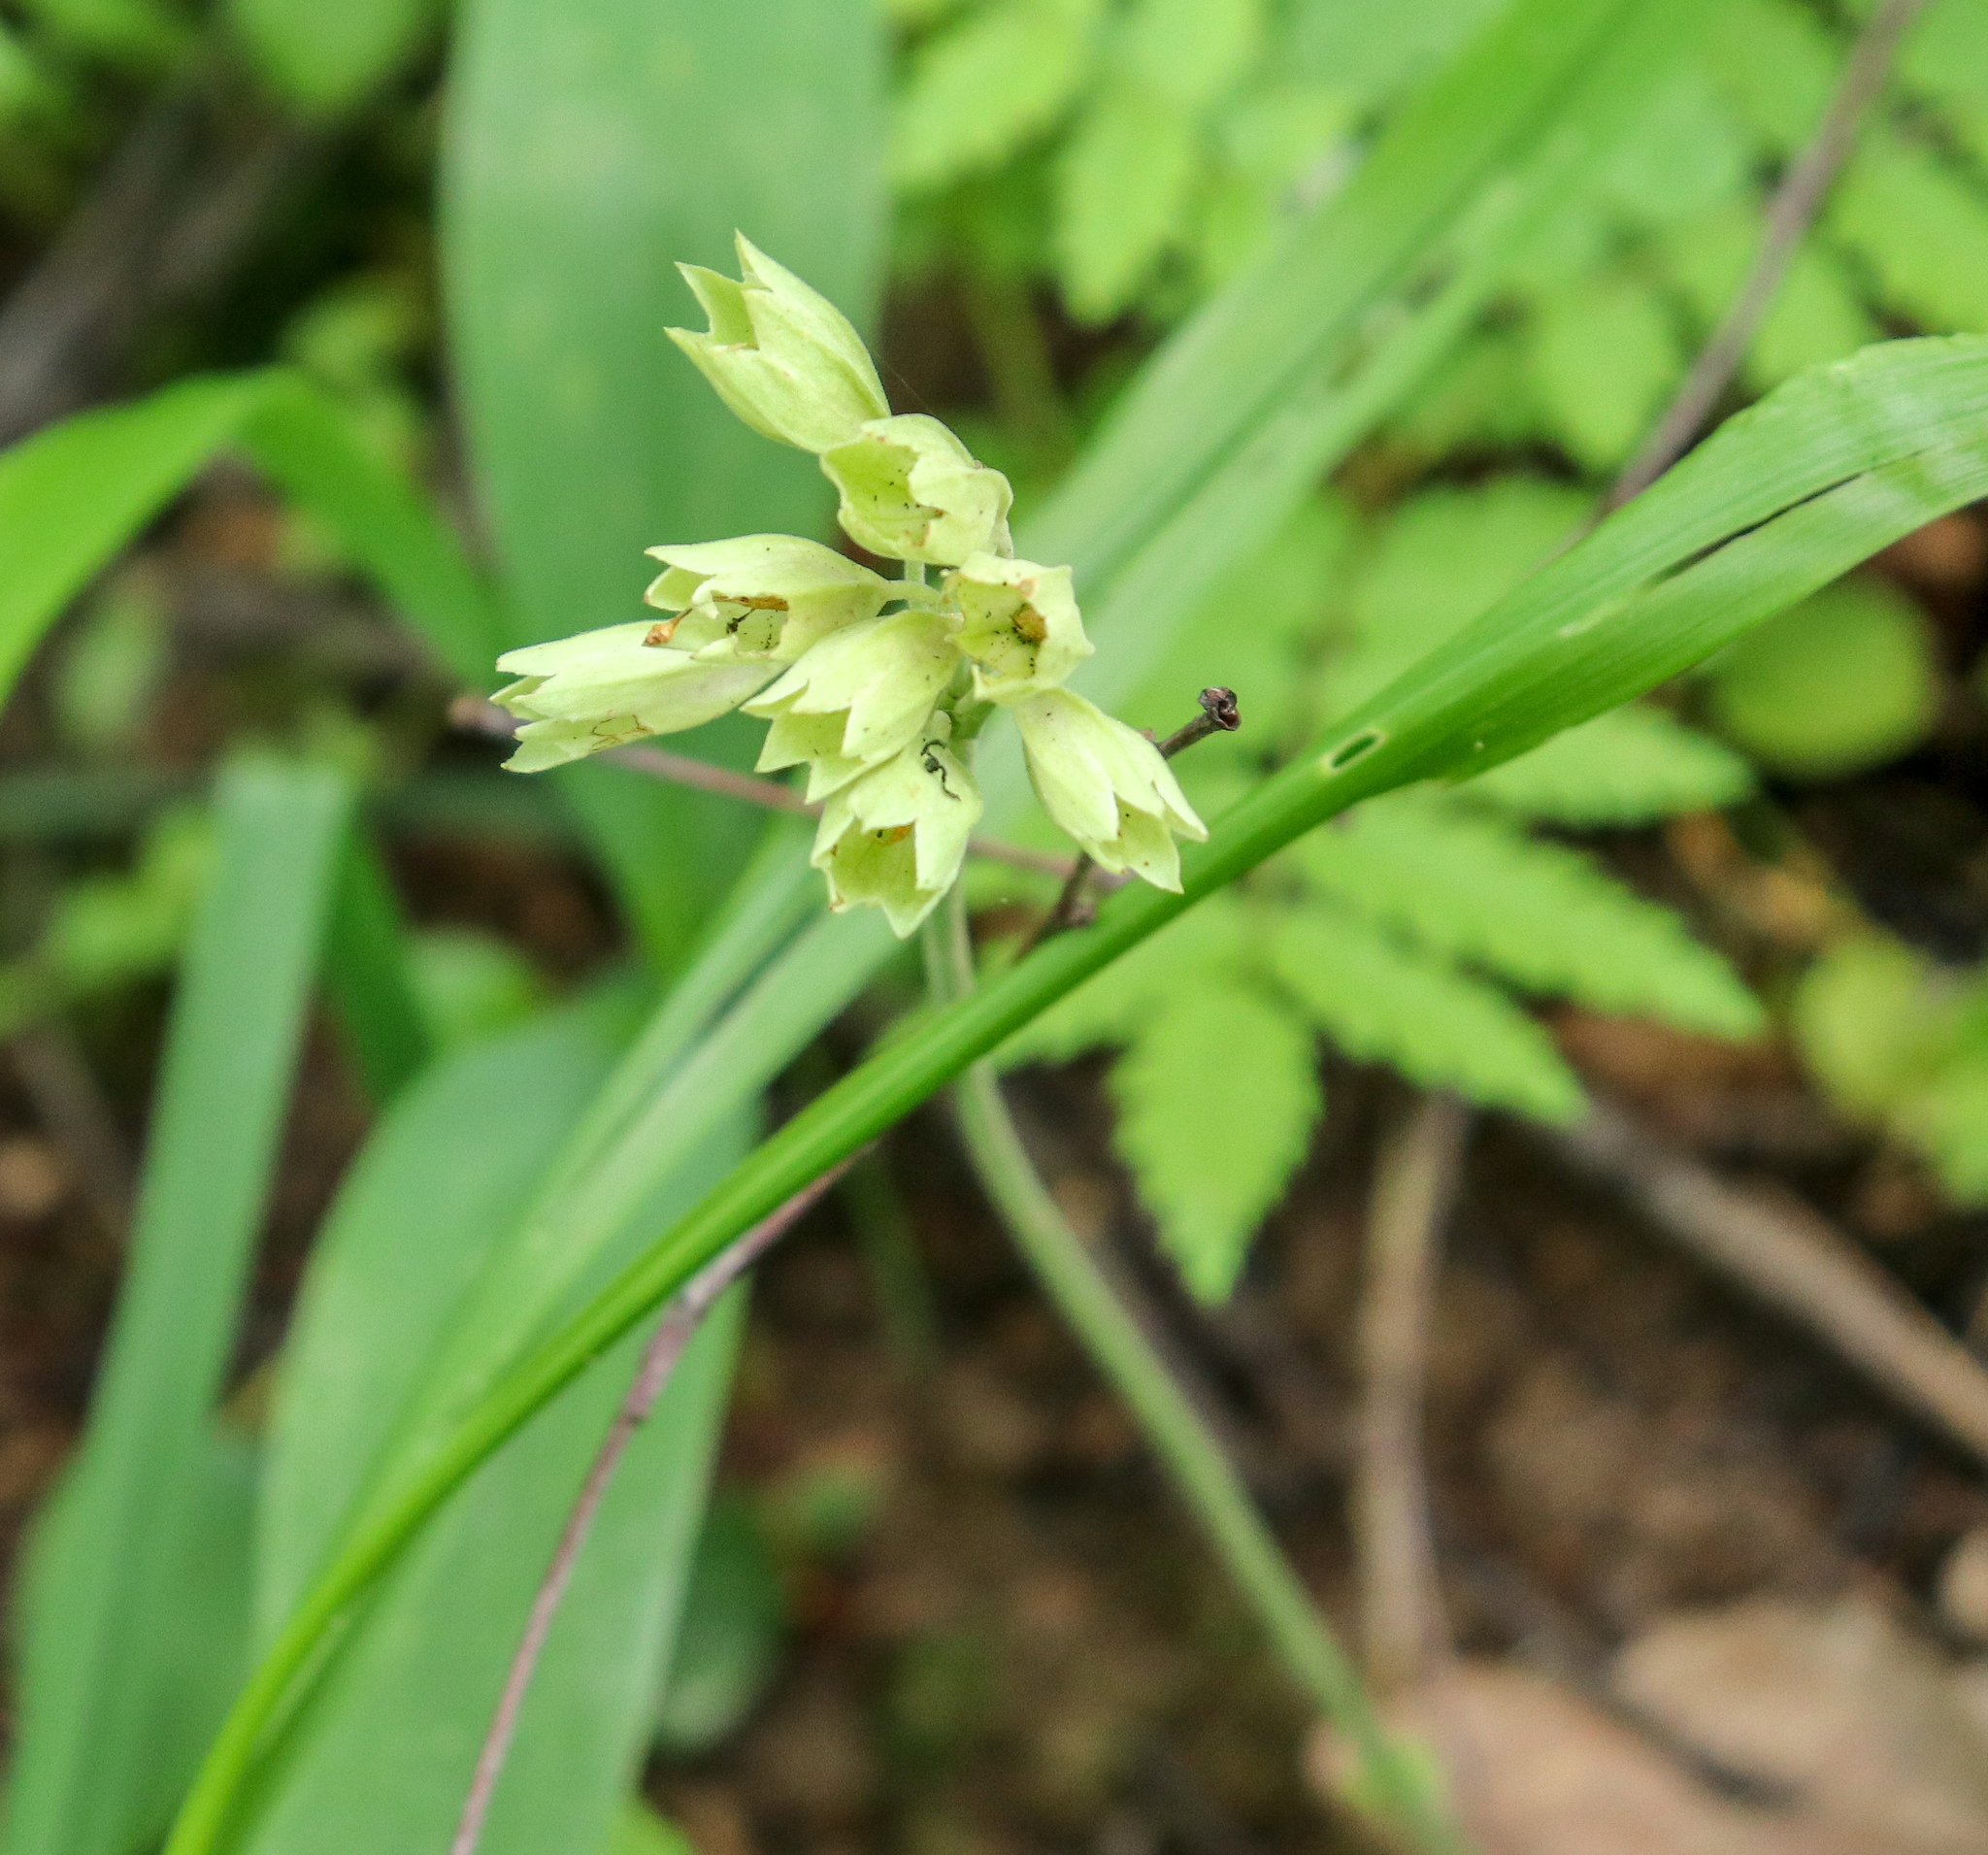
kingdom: Plantae
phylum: Tracheophyta
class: Magnoliopsida
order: Ericales
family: Primulaceae
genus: Primula
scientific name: Primula veris
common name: Cowslip
